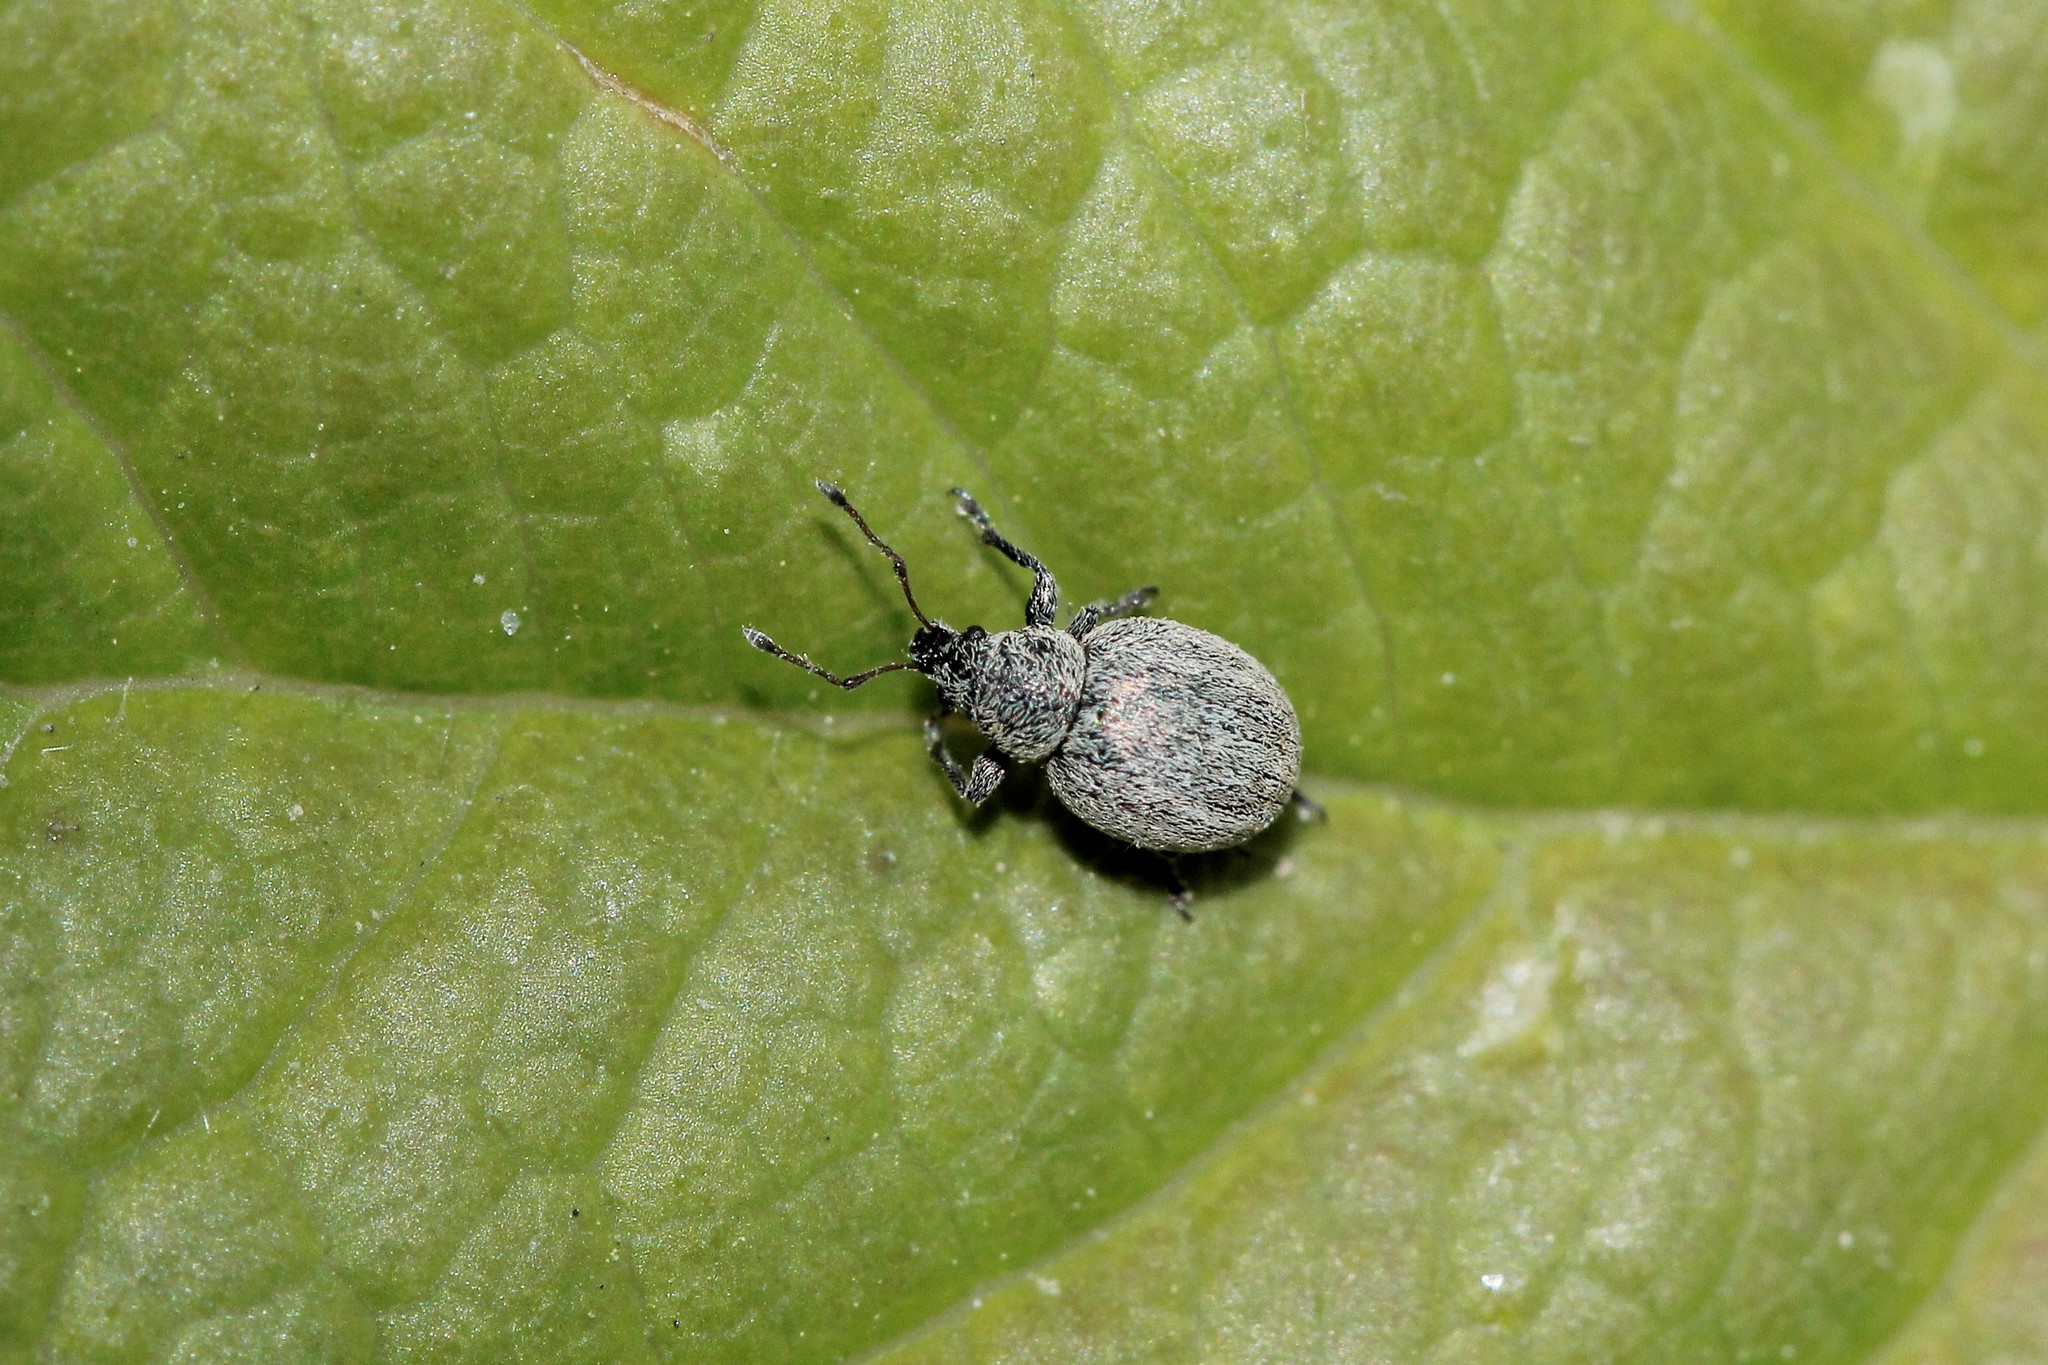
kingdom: Animalia
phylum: Arthropoda
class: Insecta
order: Coleoptera
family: Curculionidae
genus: Omias
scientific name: Omias murinus
